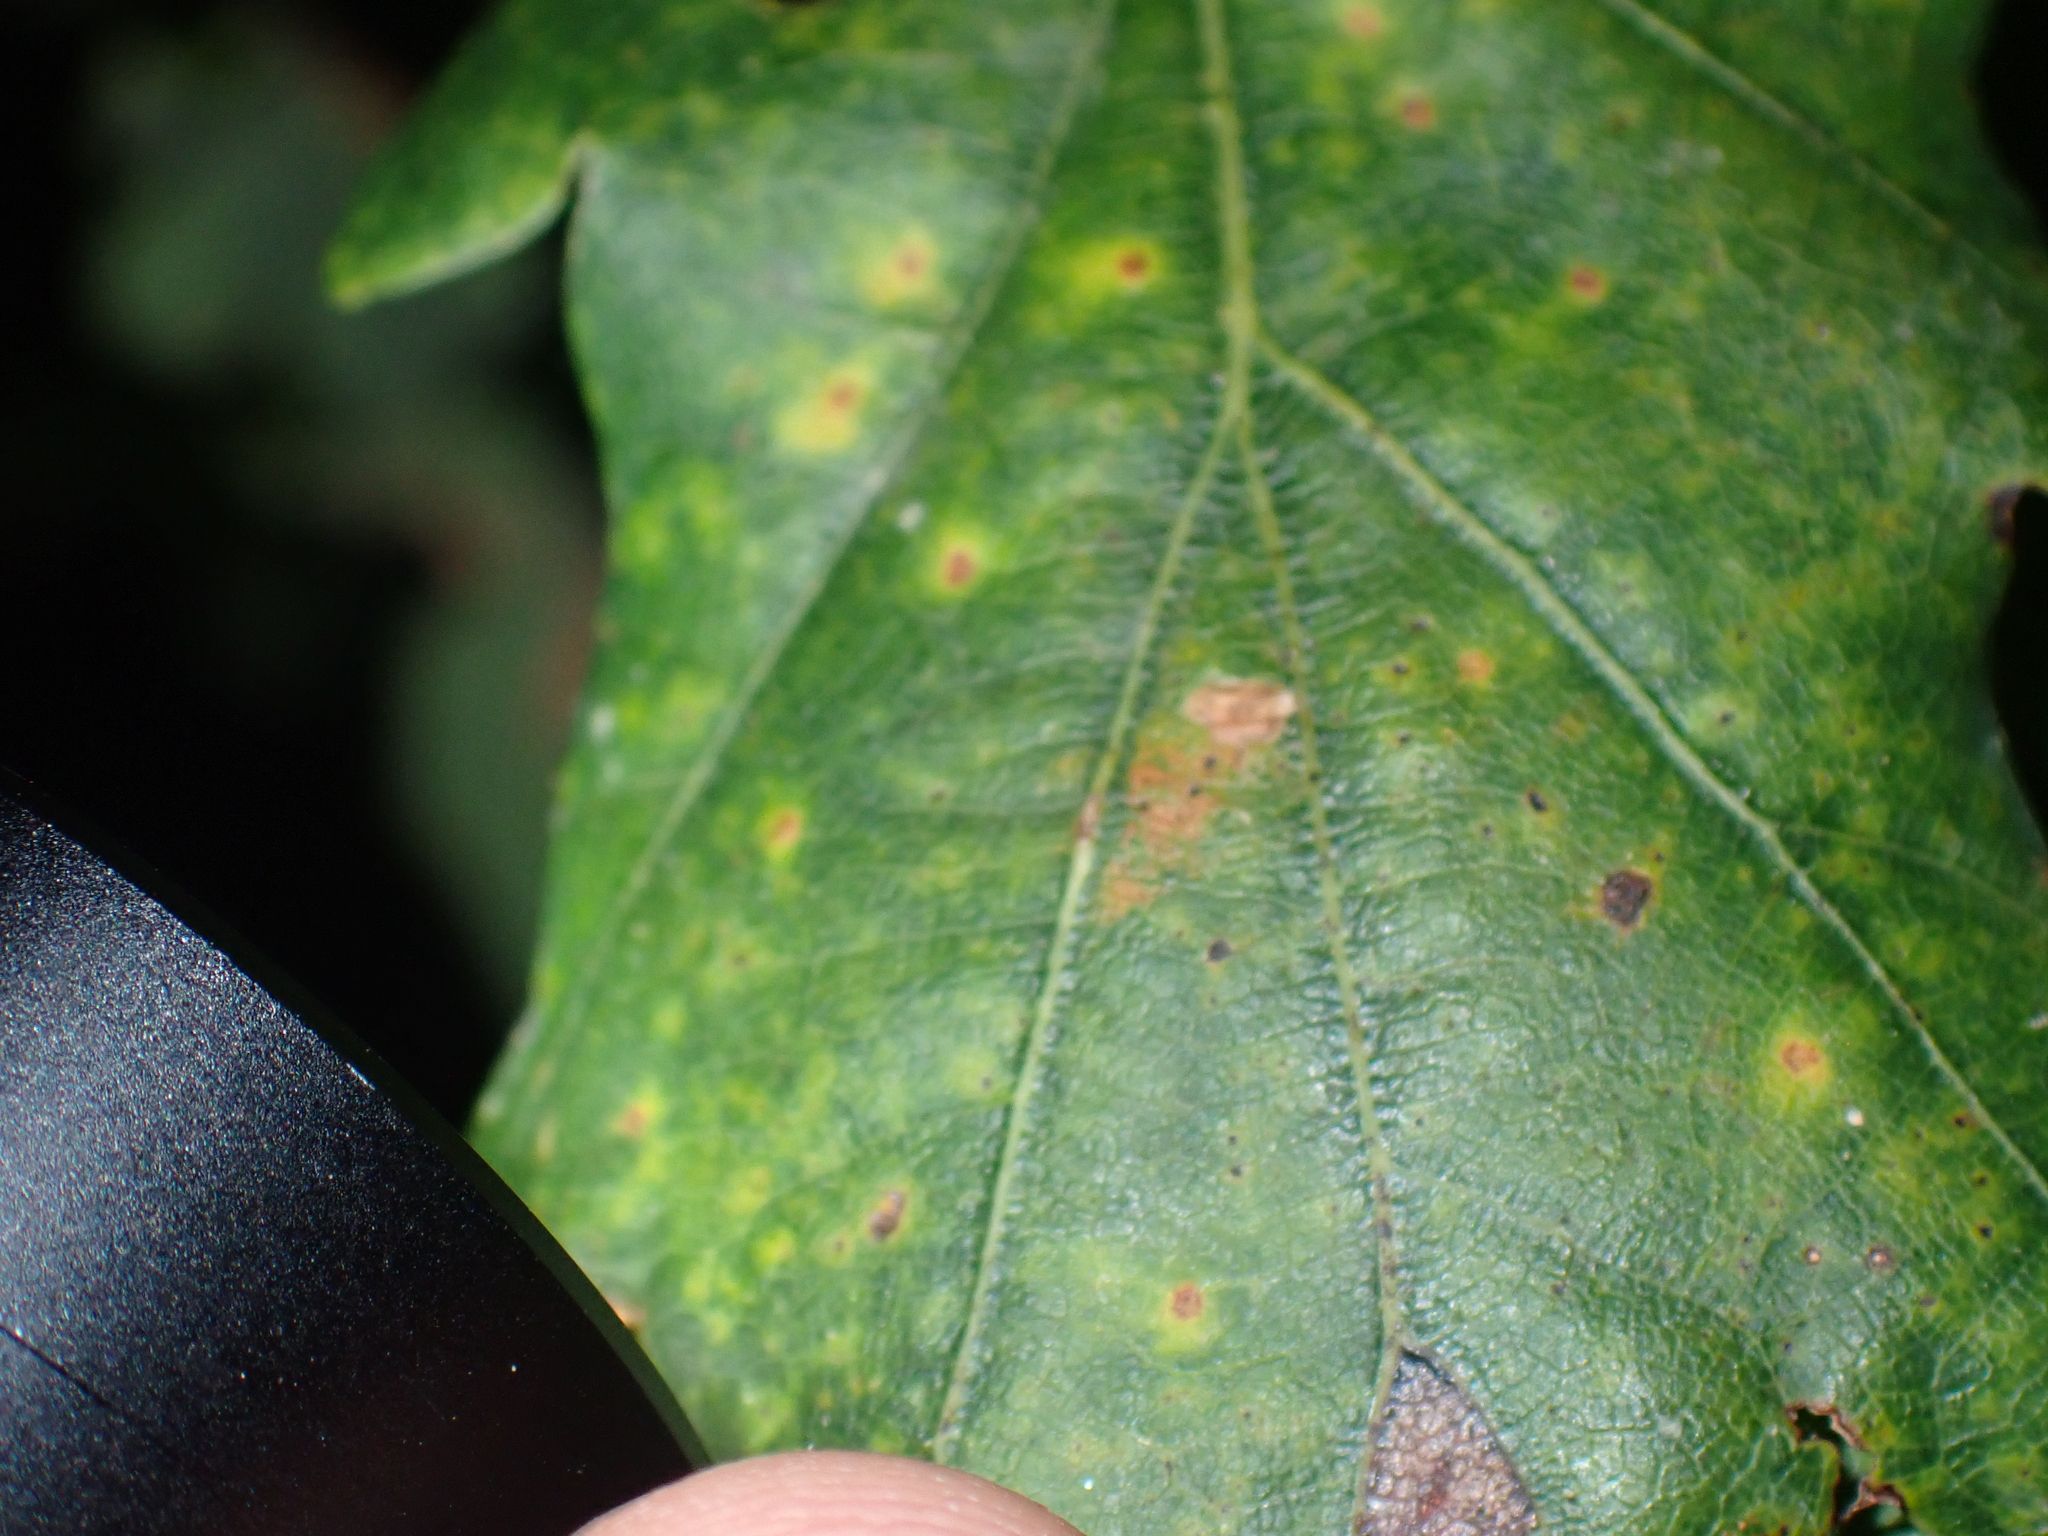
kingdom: Animalia
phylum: Arthropoda
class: Insecta
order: Hymenoptera
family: Cynipidae
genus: Neuroterus
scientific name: Neuroterus quercusbaccarum
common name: Common spangle gall
